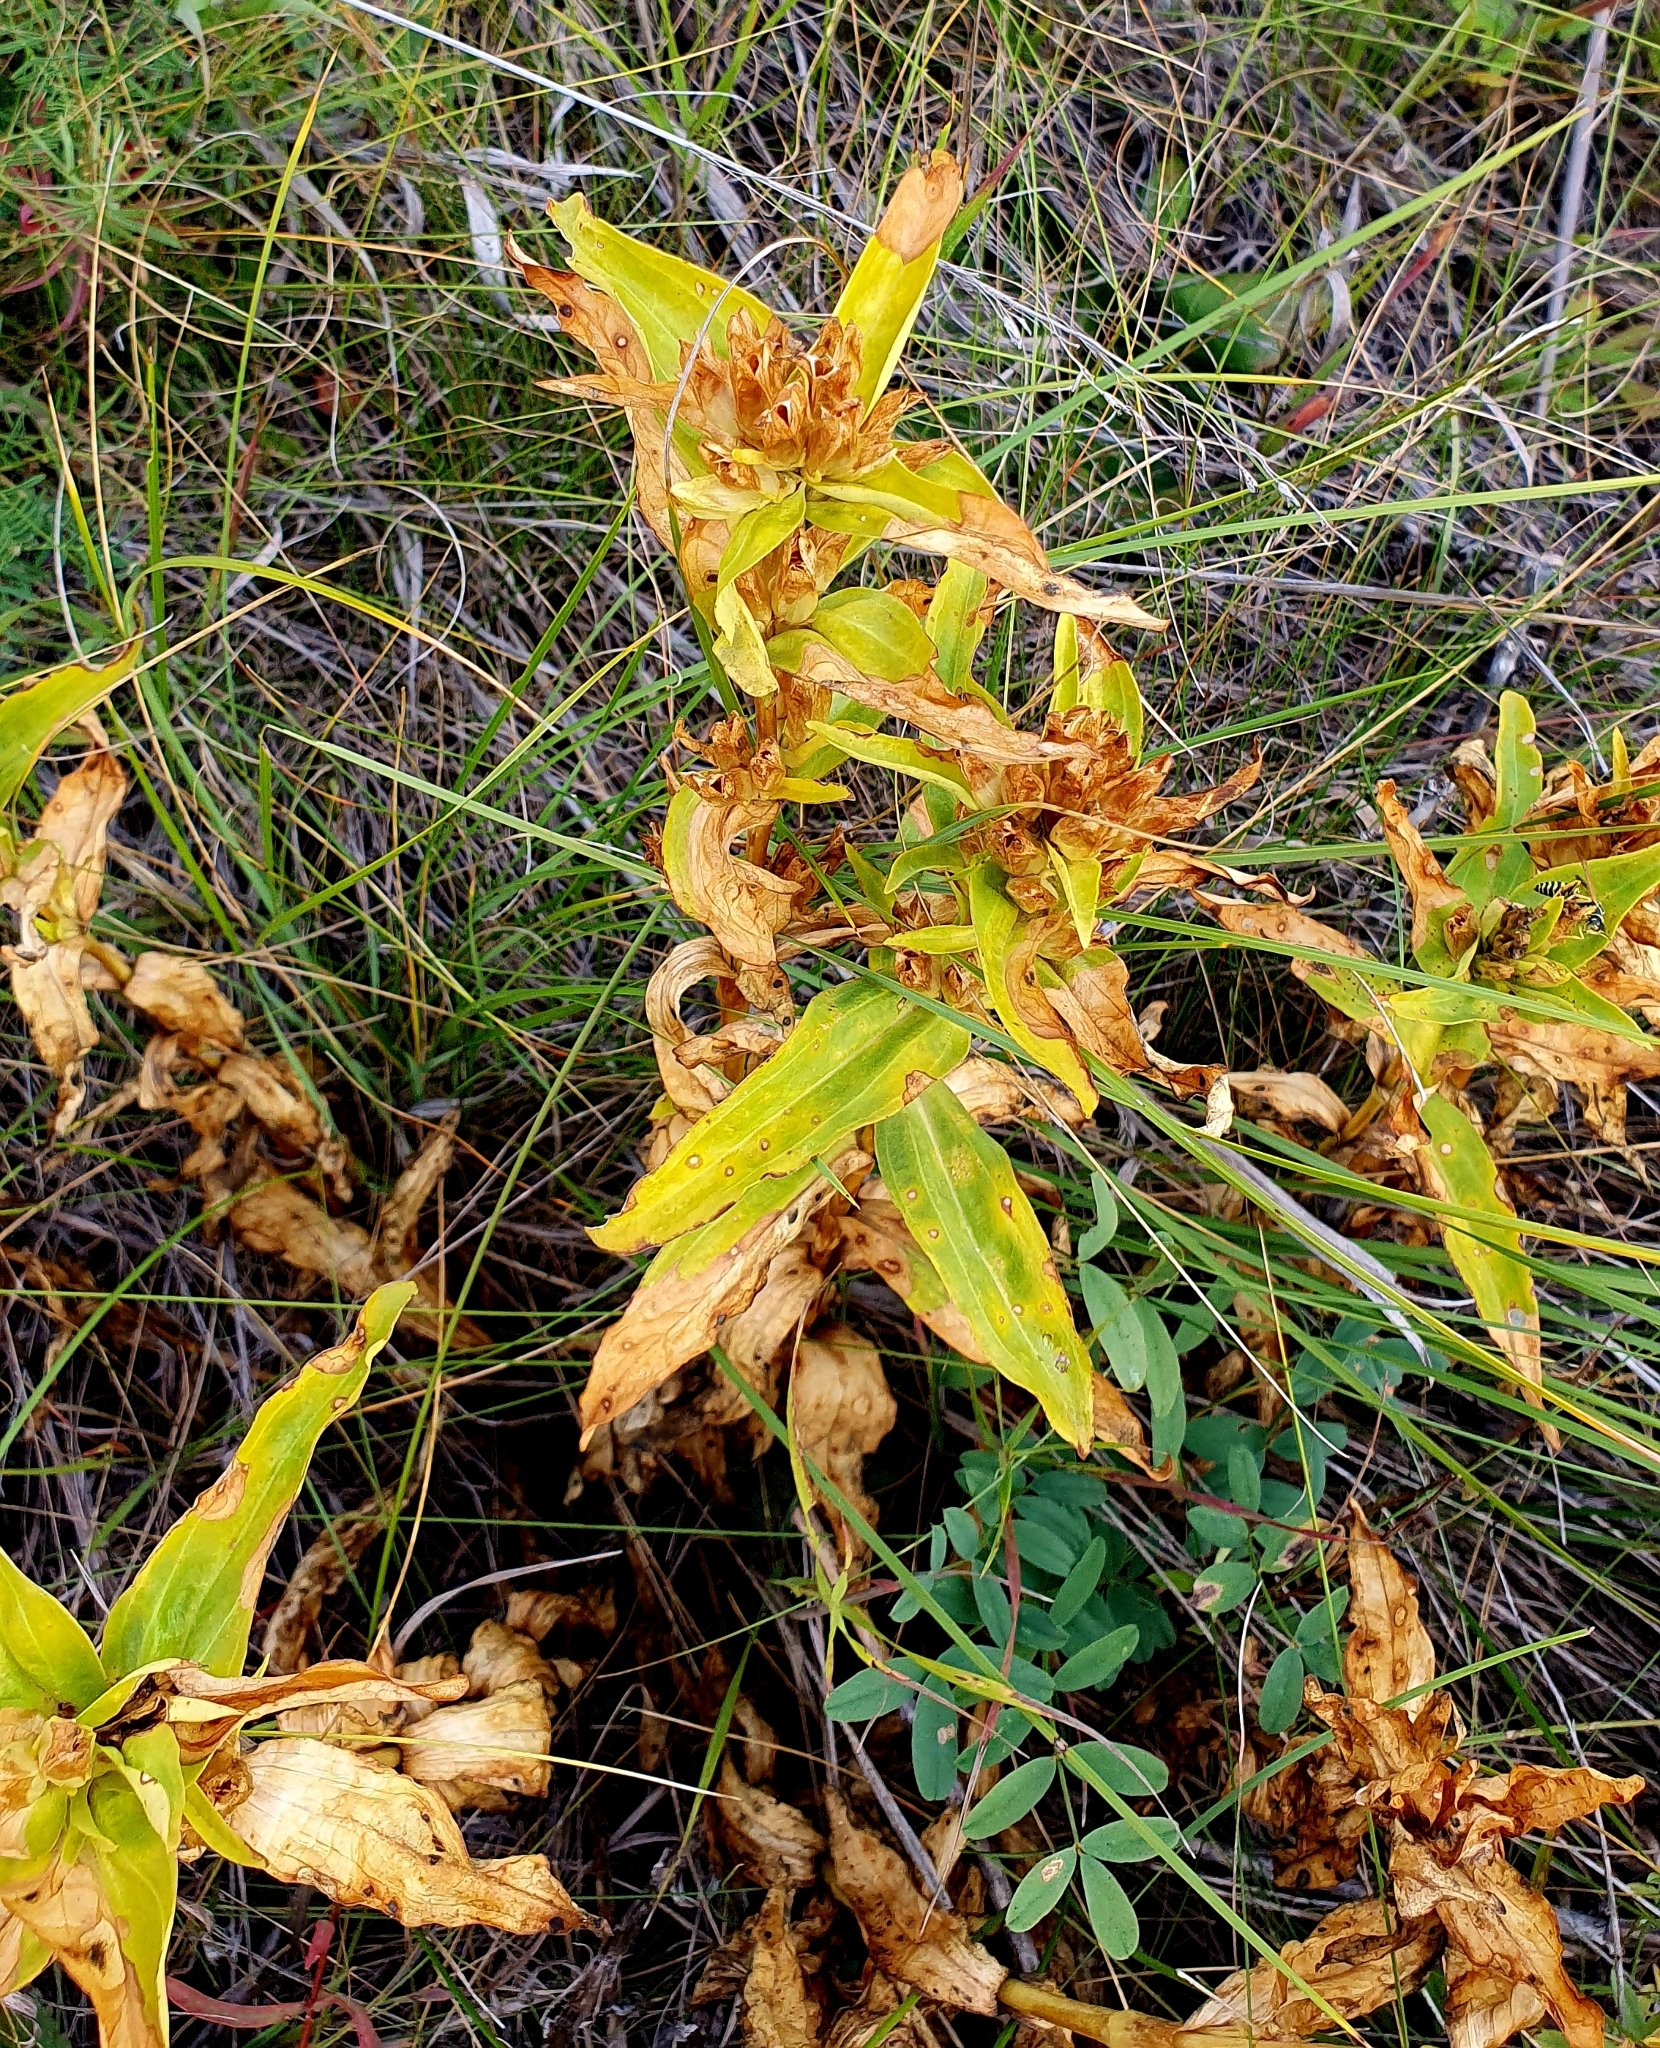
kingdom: Plantae
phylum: Tracheophyta
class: Magnoliopsida
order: Gentianales
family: Gentianaceae
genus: Gentiana
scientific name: Gentiana cruciata
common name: Cross gentian
